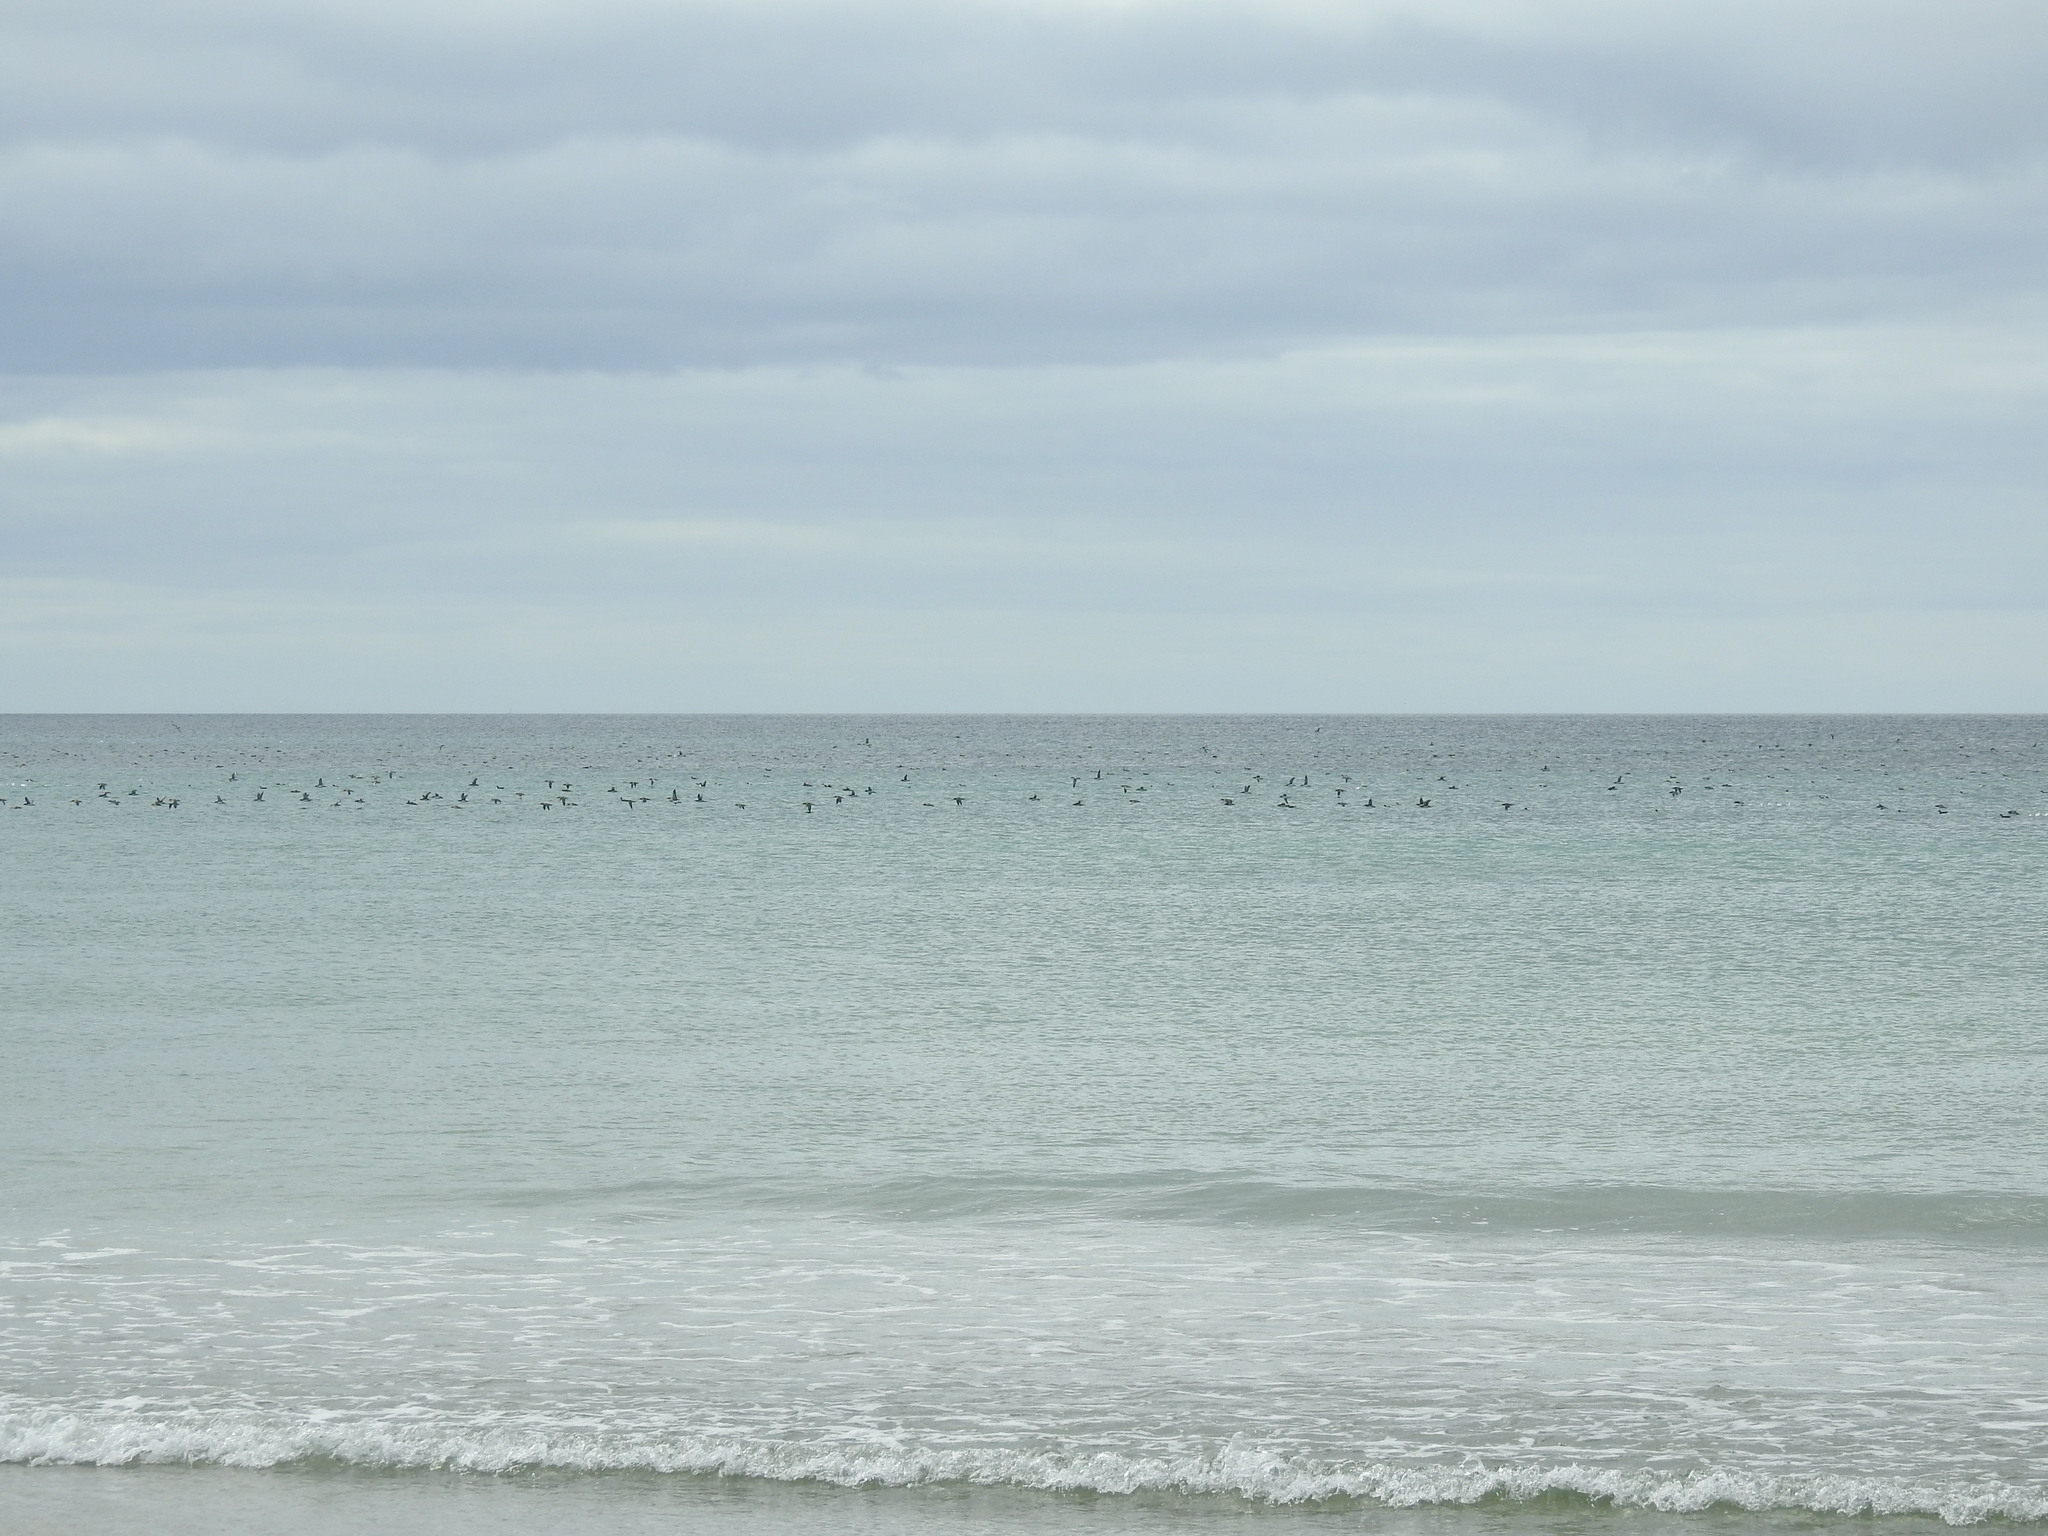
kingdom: Animalia
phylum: Chordata
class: Aves
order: Procellariiformes
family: Procellariidae
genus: Puffinus
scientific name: Puffinus gavia
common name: Fluttering shearwater
